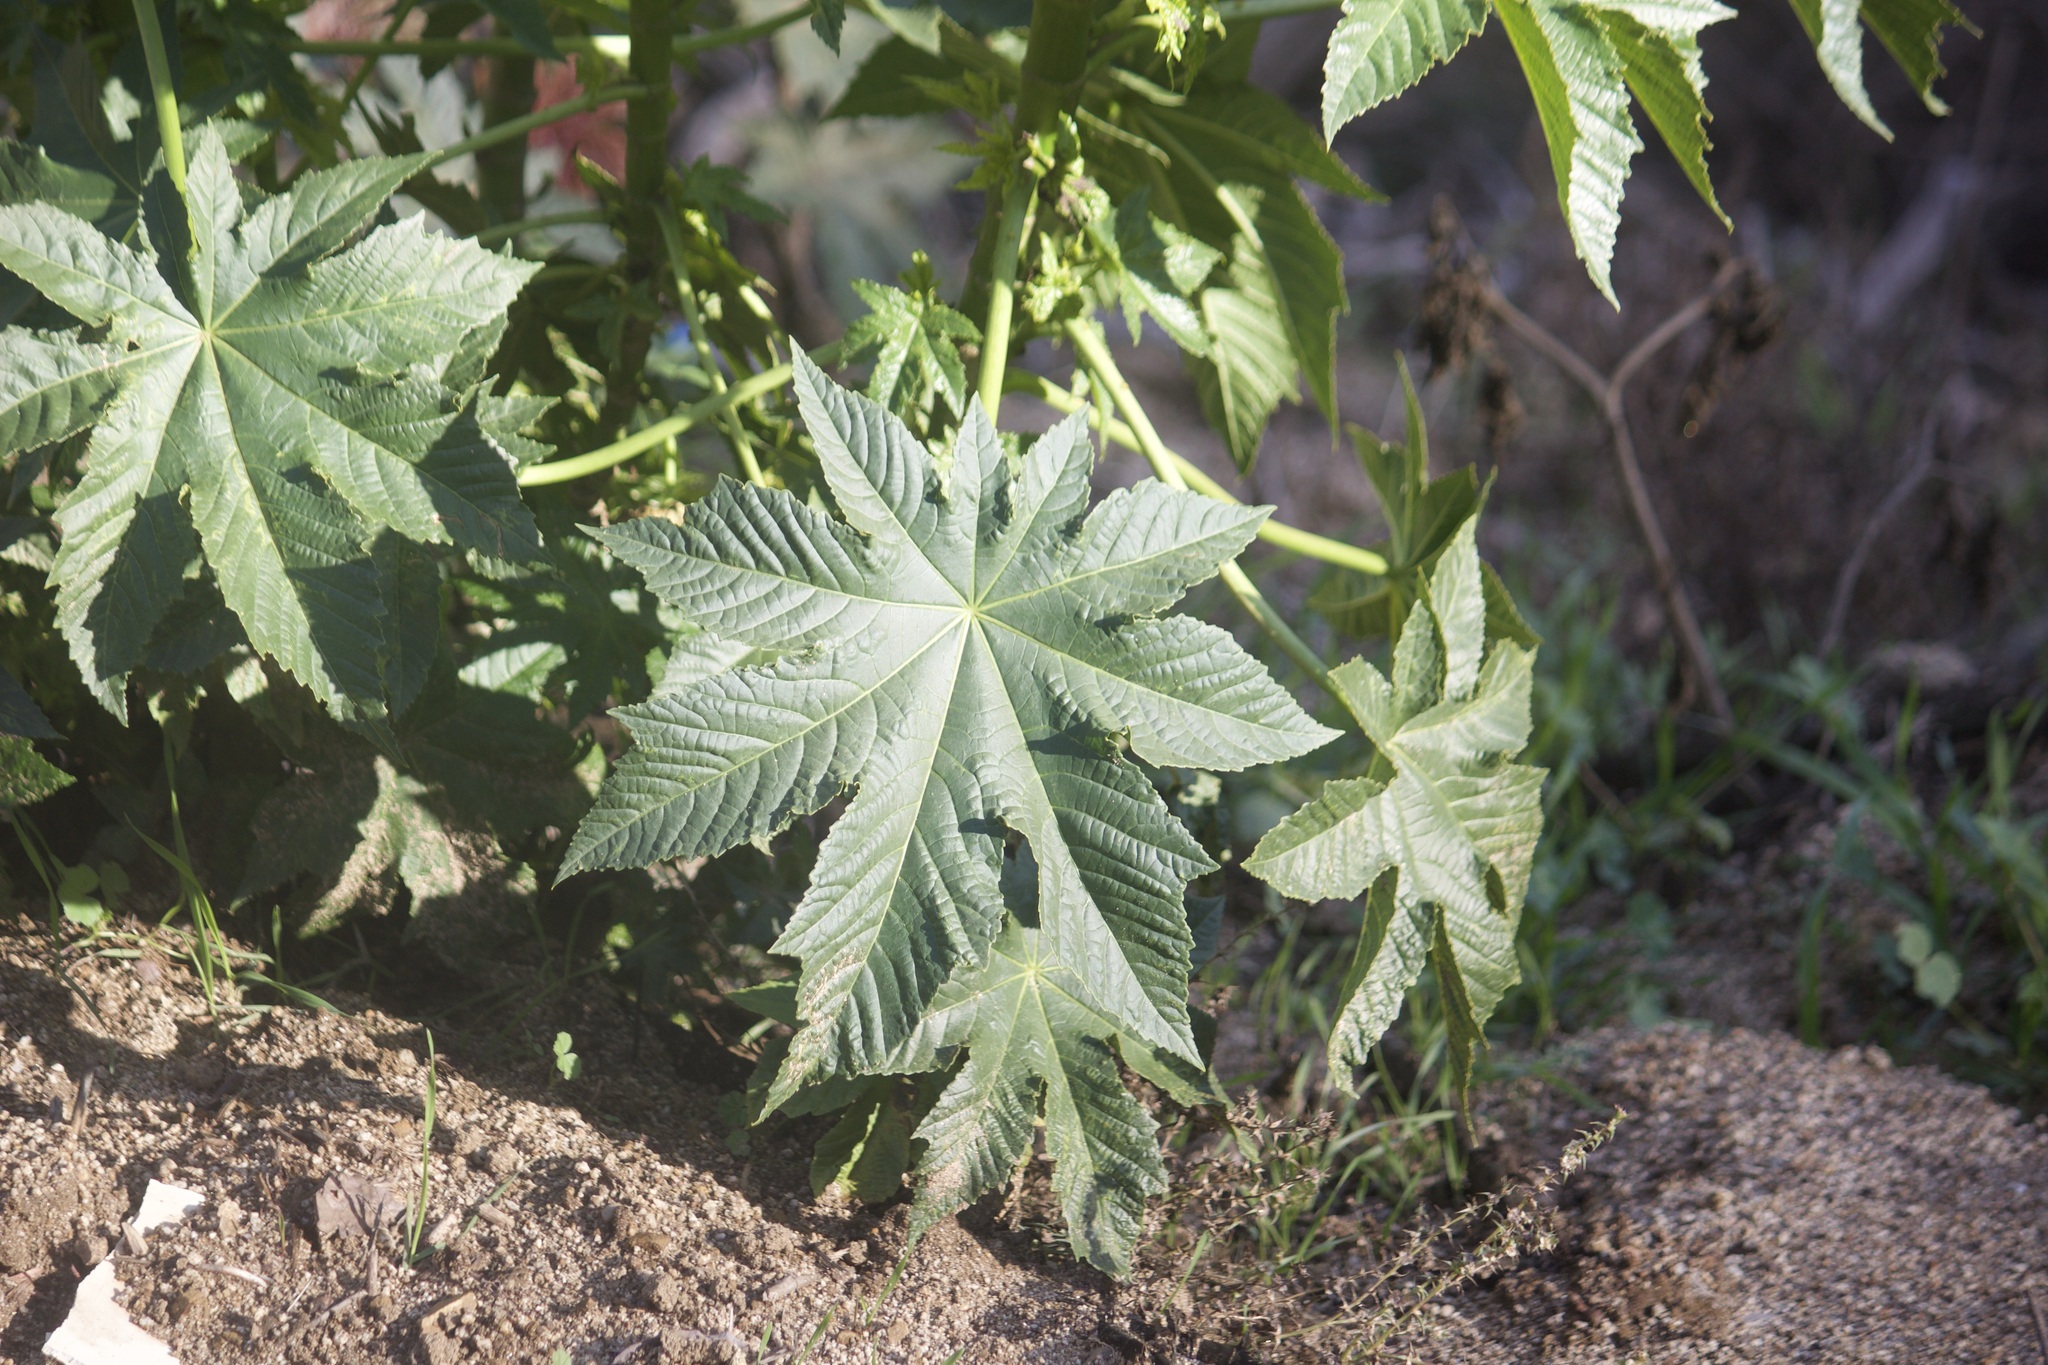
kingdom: Plantae
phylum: Tracheophyta
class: Magnoliopsida
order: Malpighiales
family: Euphorbiaceae
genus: Ricinus
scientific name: Ricinus communis
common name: Castor-oil-plant
